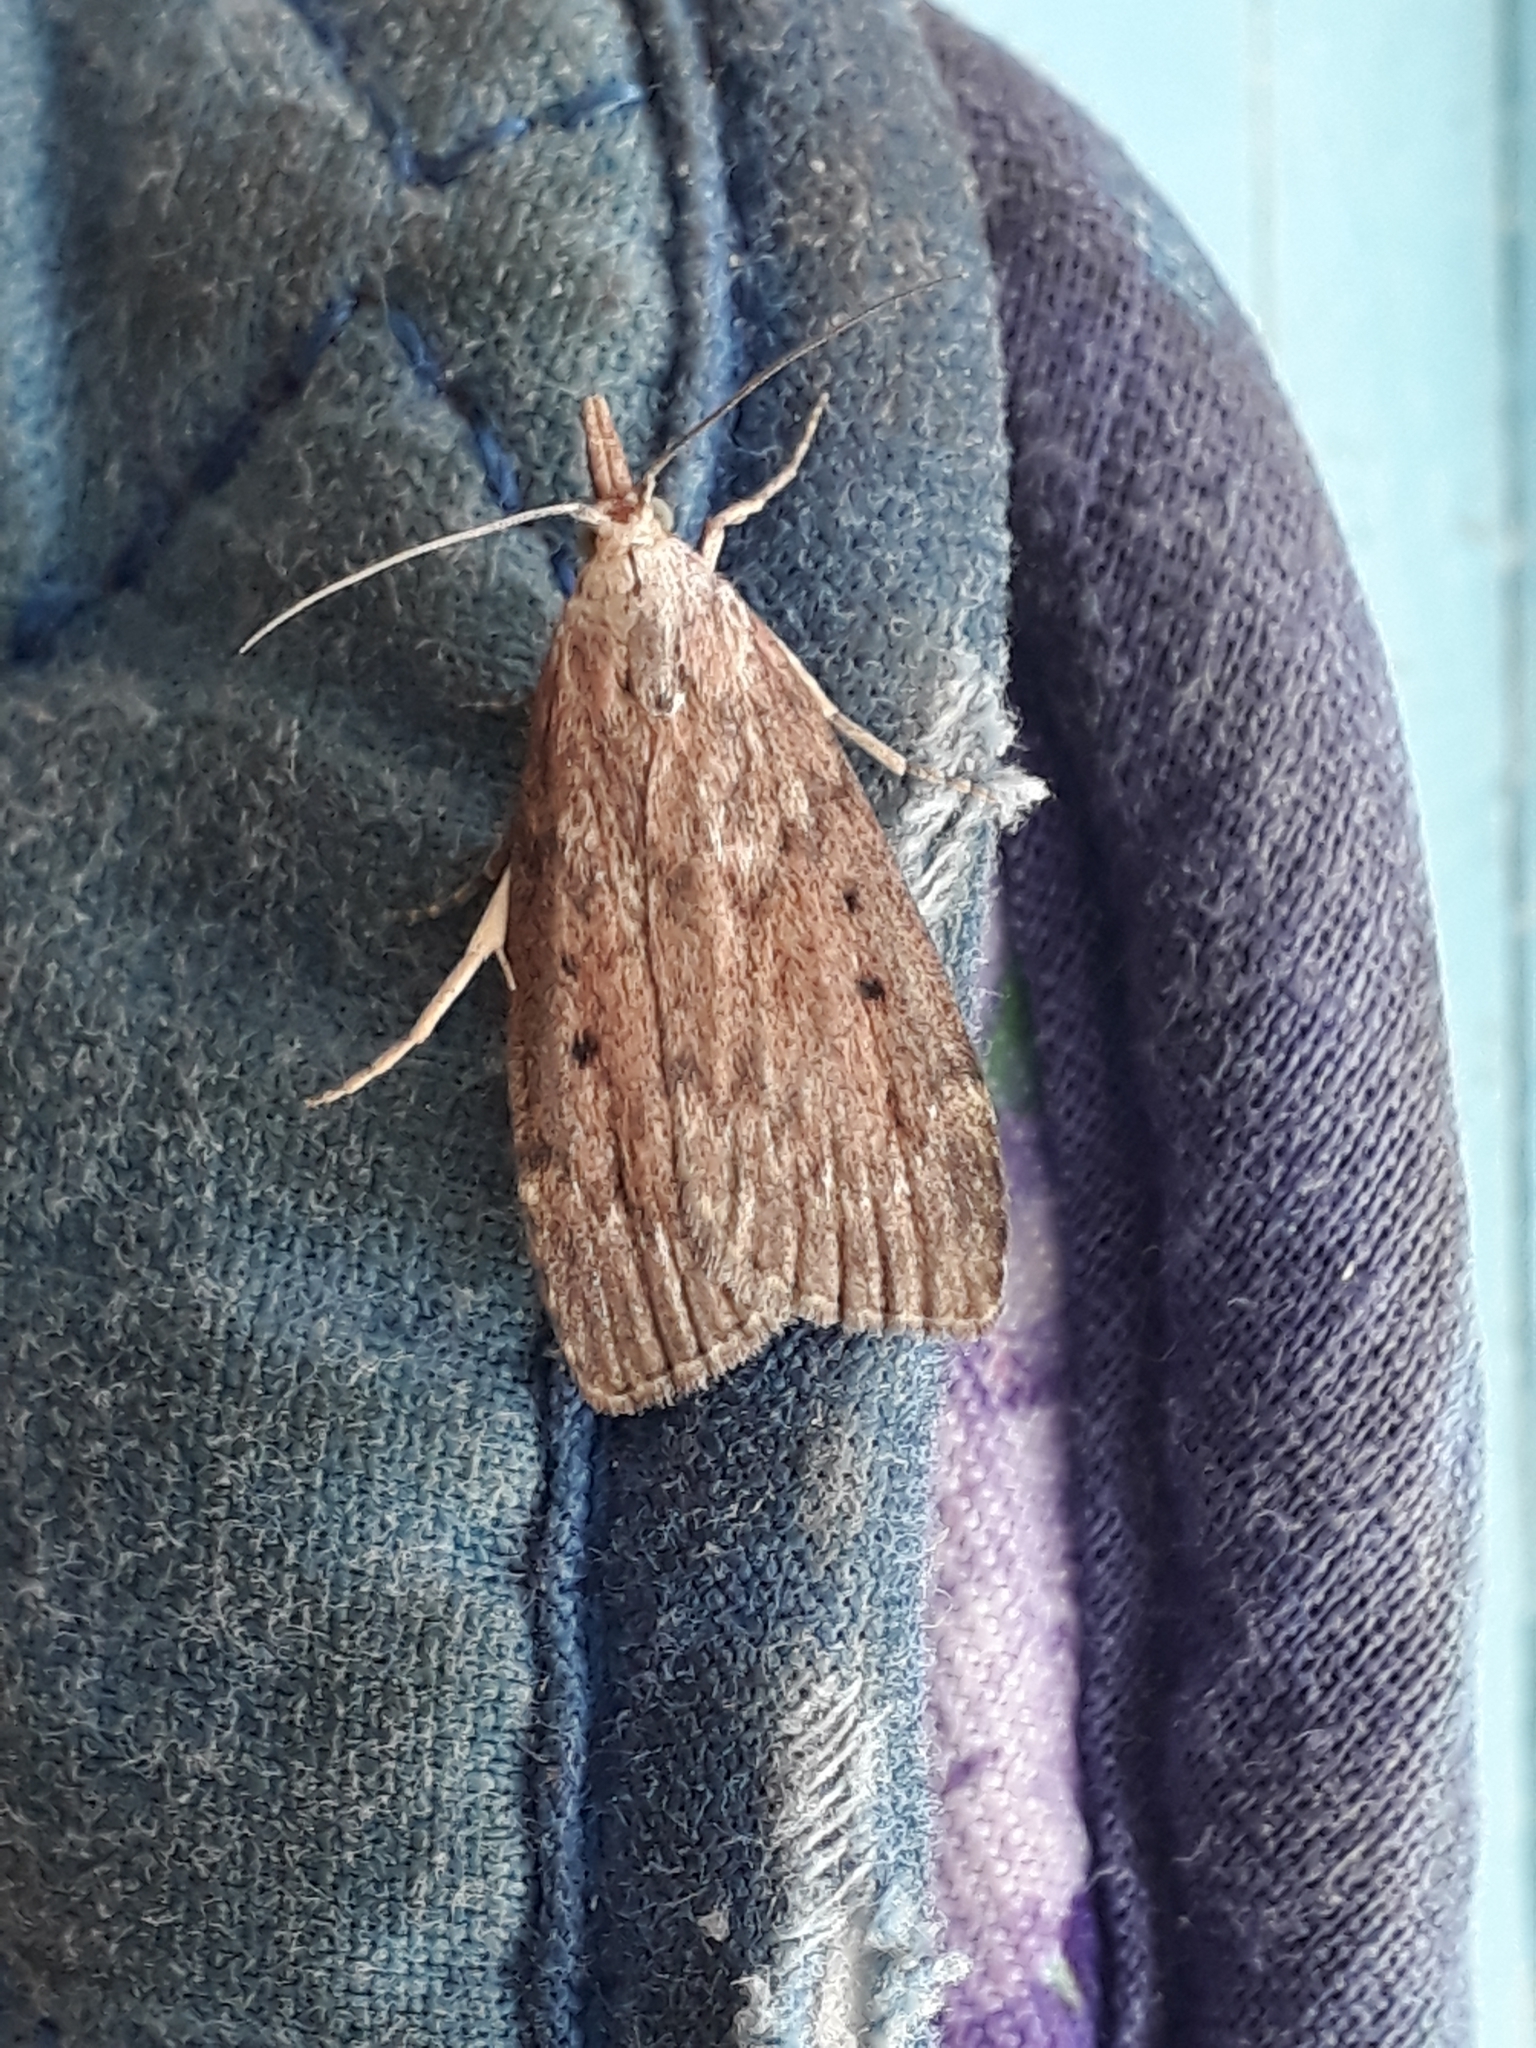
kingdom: Animalia
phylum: Arthropoda
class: Insecta
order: Lepidoptera
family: Pyralidae
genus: Aphomia
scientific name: Aphomia sociella
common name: Bee moth
